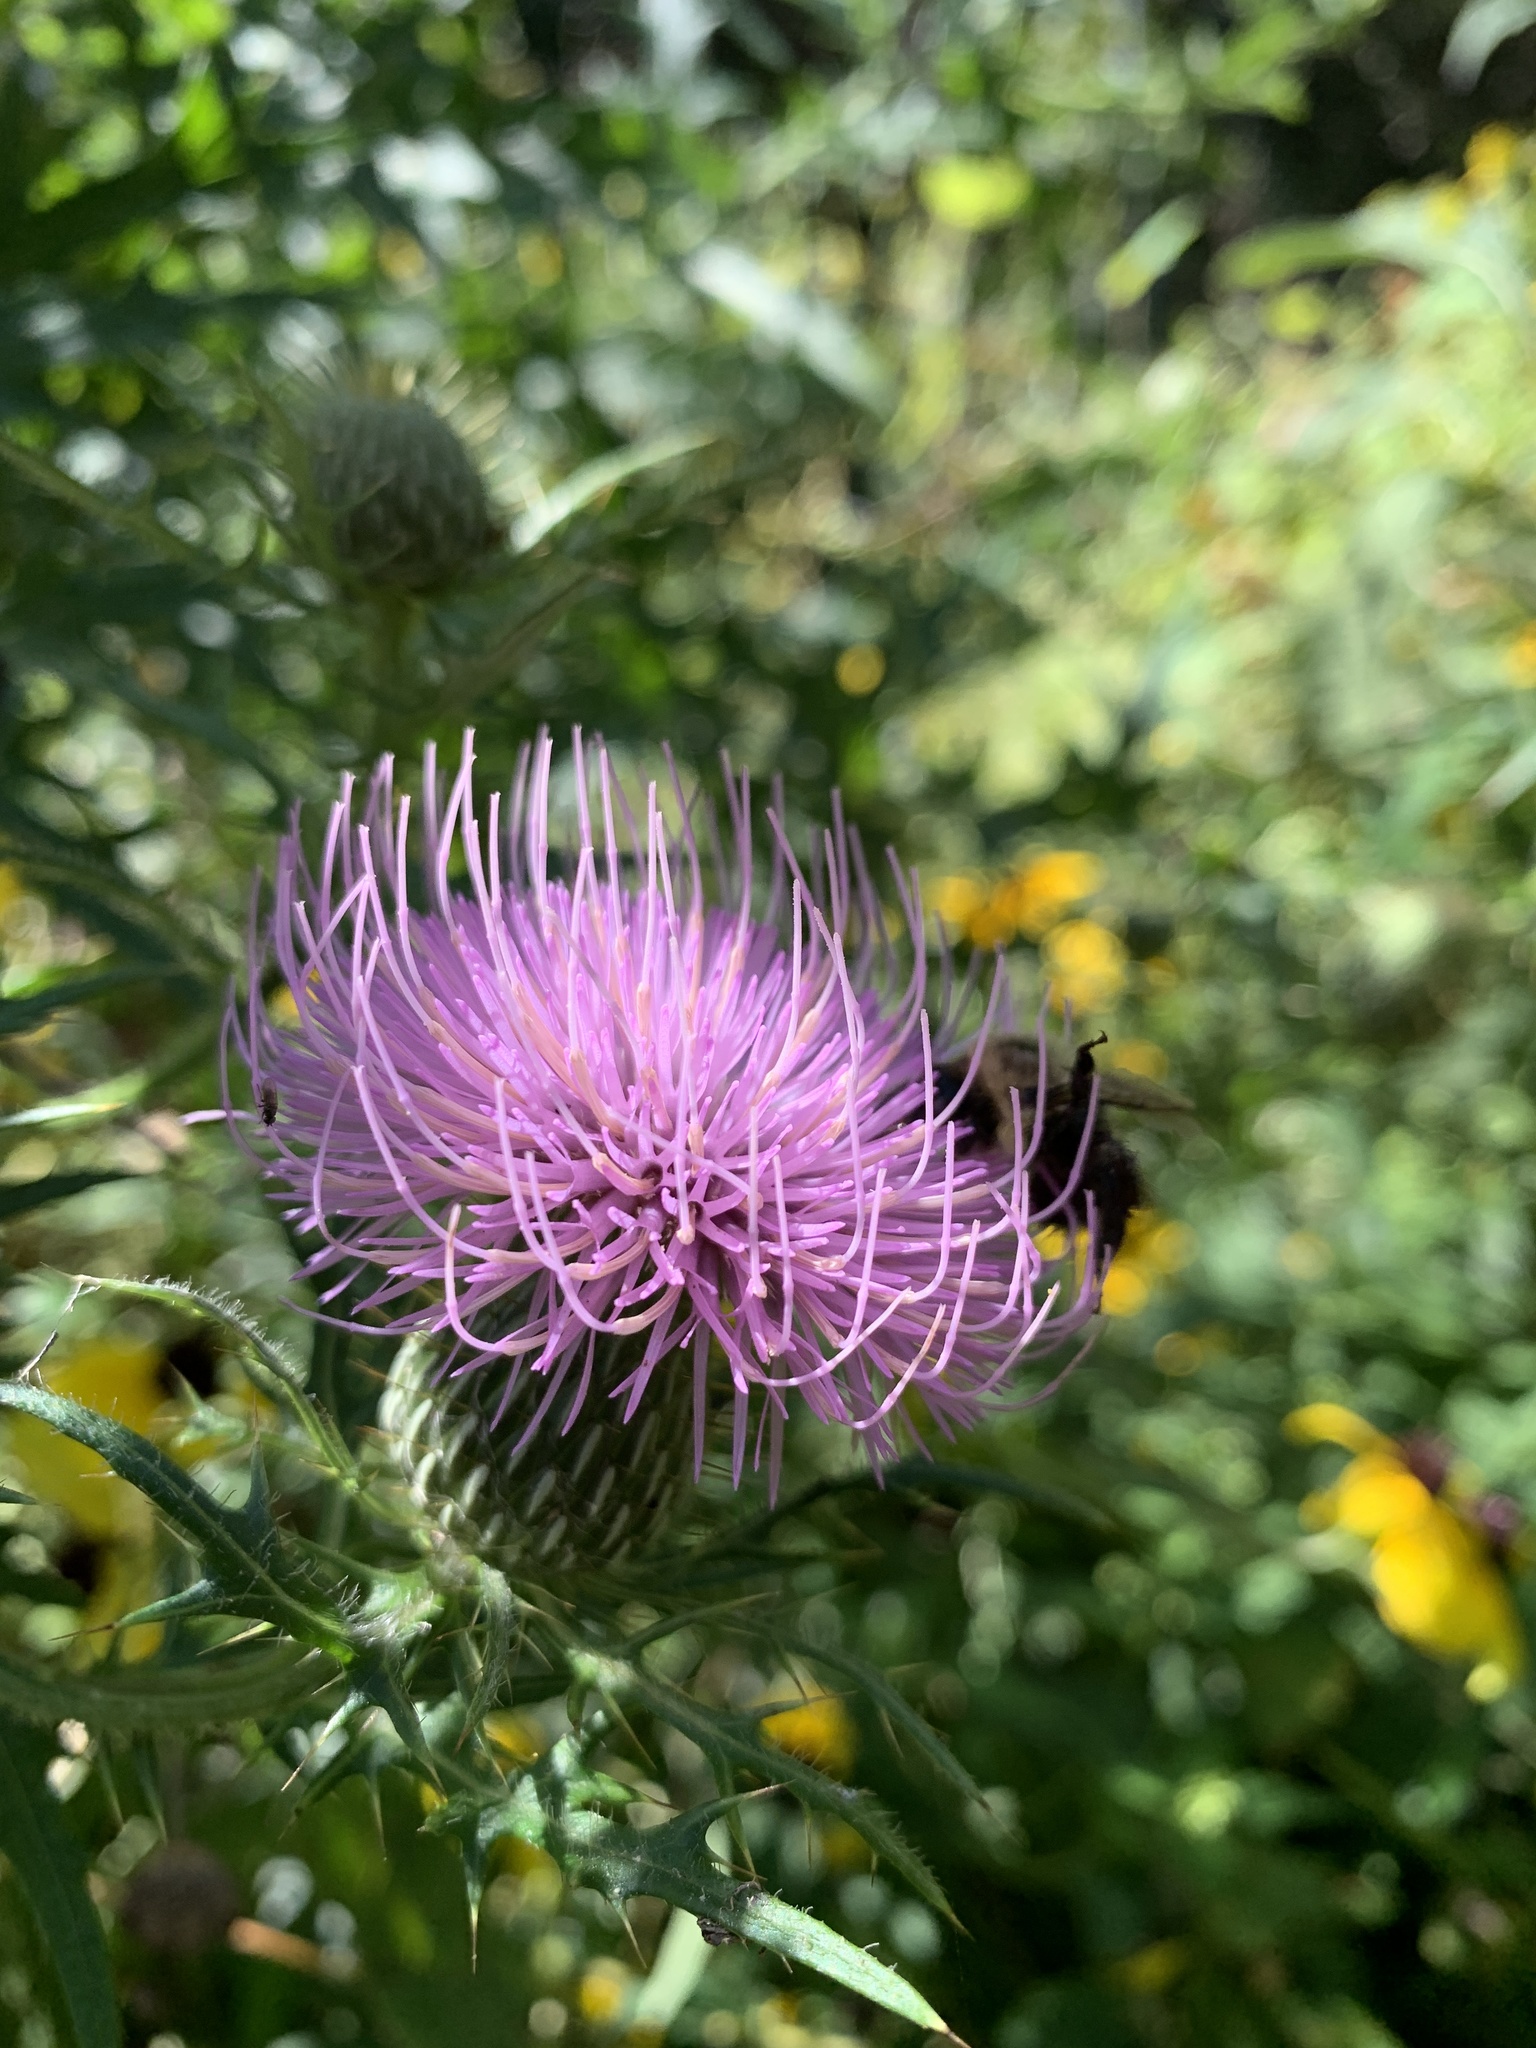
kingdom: Plantae
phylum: Tracheophyta
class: Magnoliopsida
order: Asterales
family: Asteraceae
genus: Cirsium
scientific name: Cirsium discolor
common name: Field thistle
